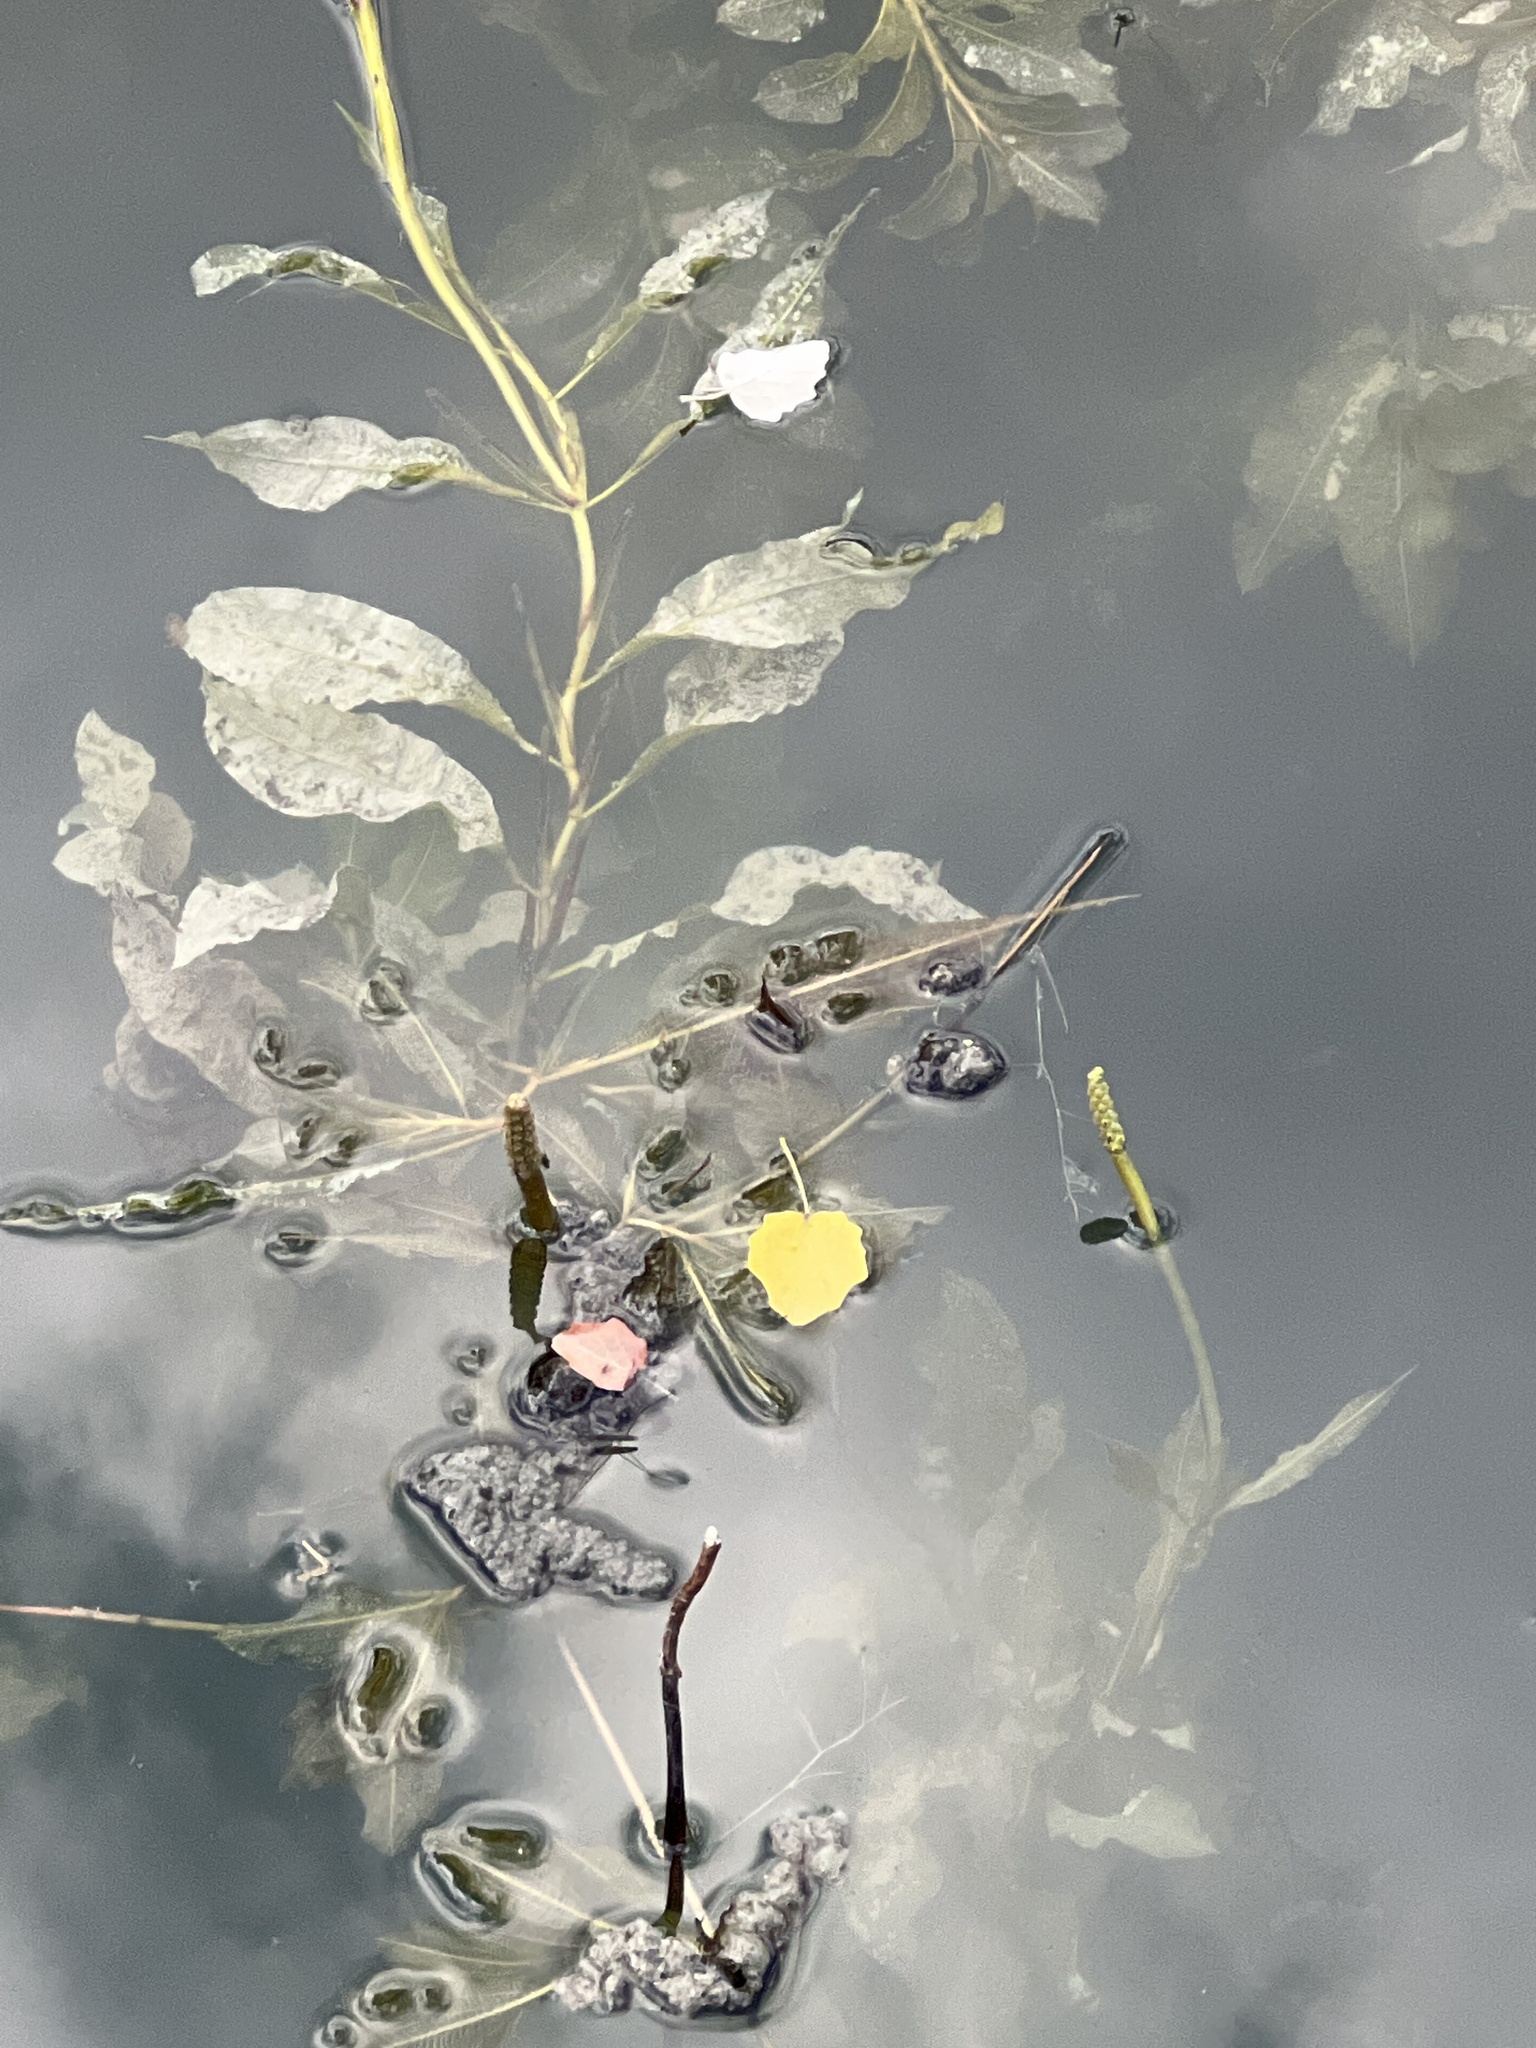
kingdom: Plantae
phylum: Tracheophyta
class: Liliopsida
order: Alismatales
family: Potamogetonaceae
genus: Potamogeton
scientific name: Potamogeton lucens
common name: Shining pondweed
